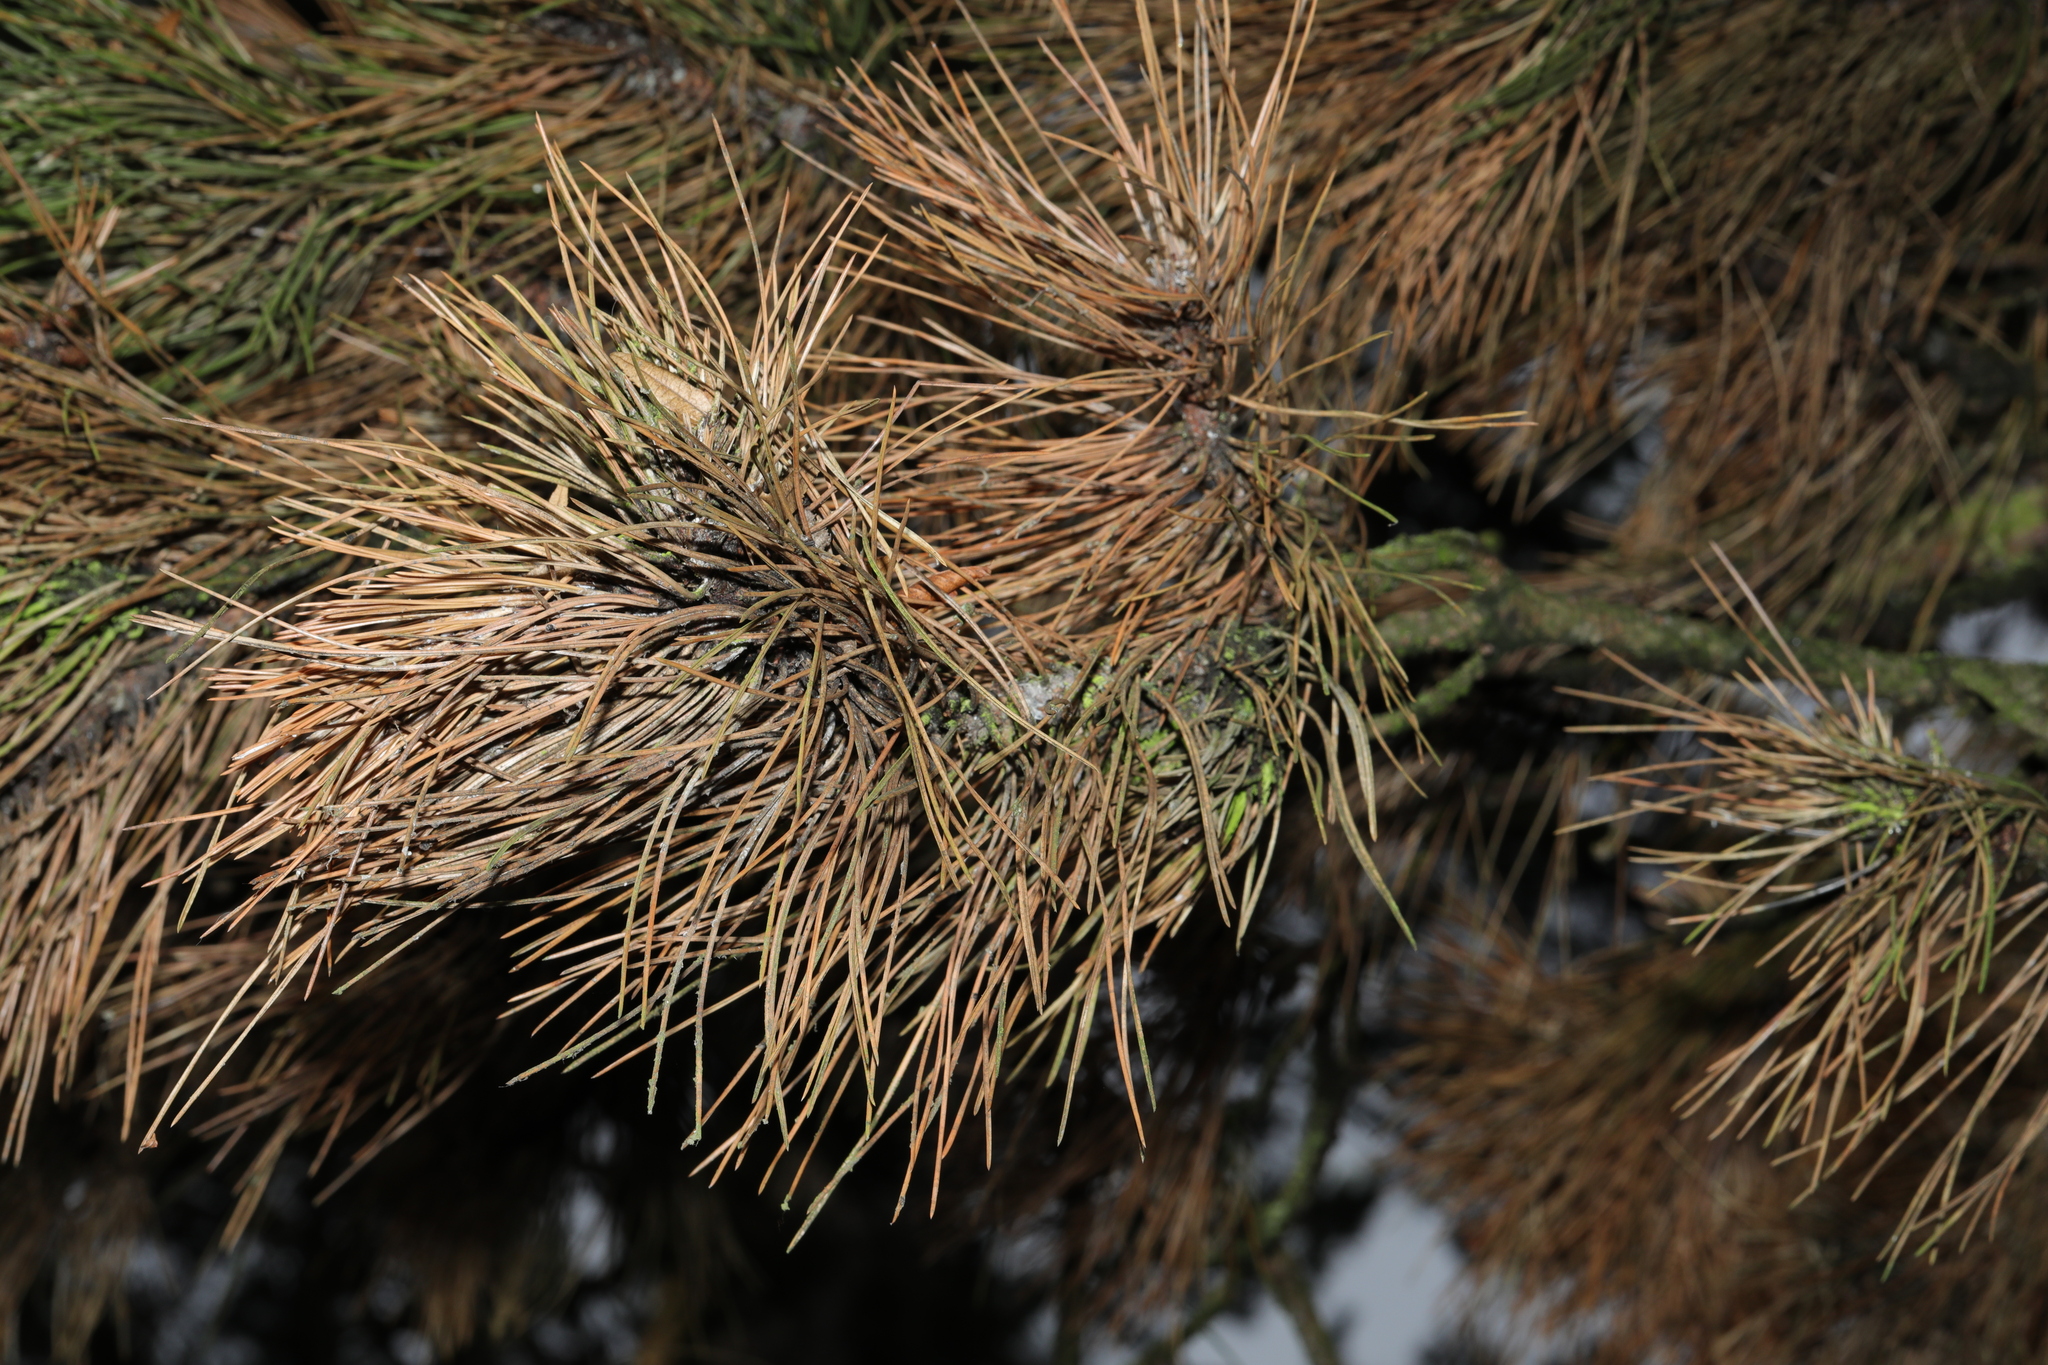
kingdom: Plantae
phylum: Tracheophyta
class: Pinopsida
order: Pinales
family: Pinaceae
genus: Pinus
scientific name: Pinus nigra
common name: Austrian pine
